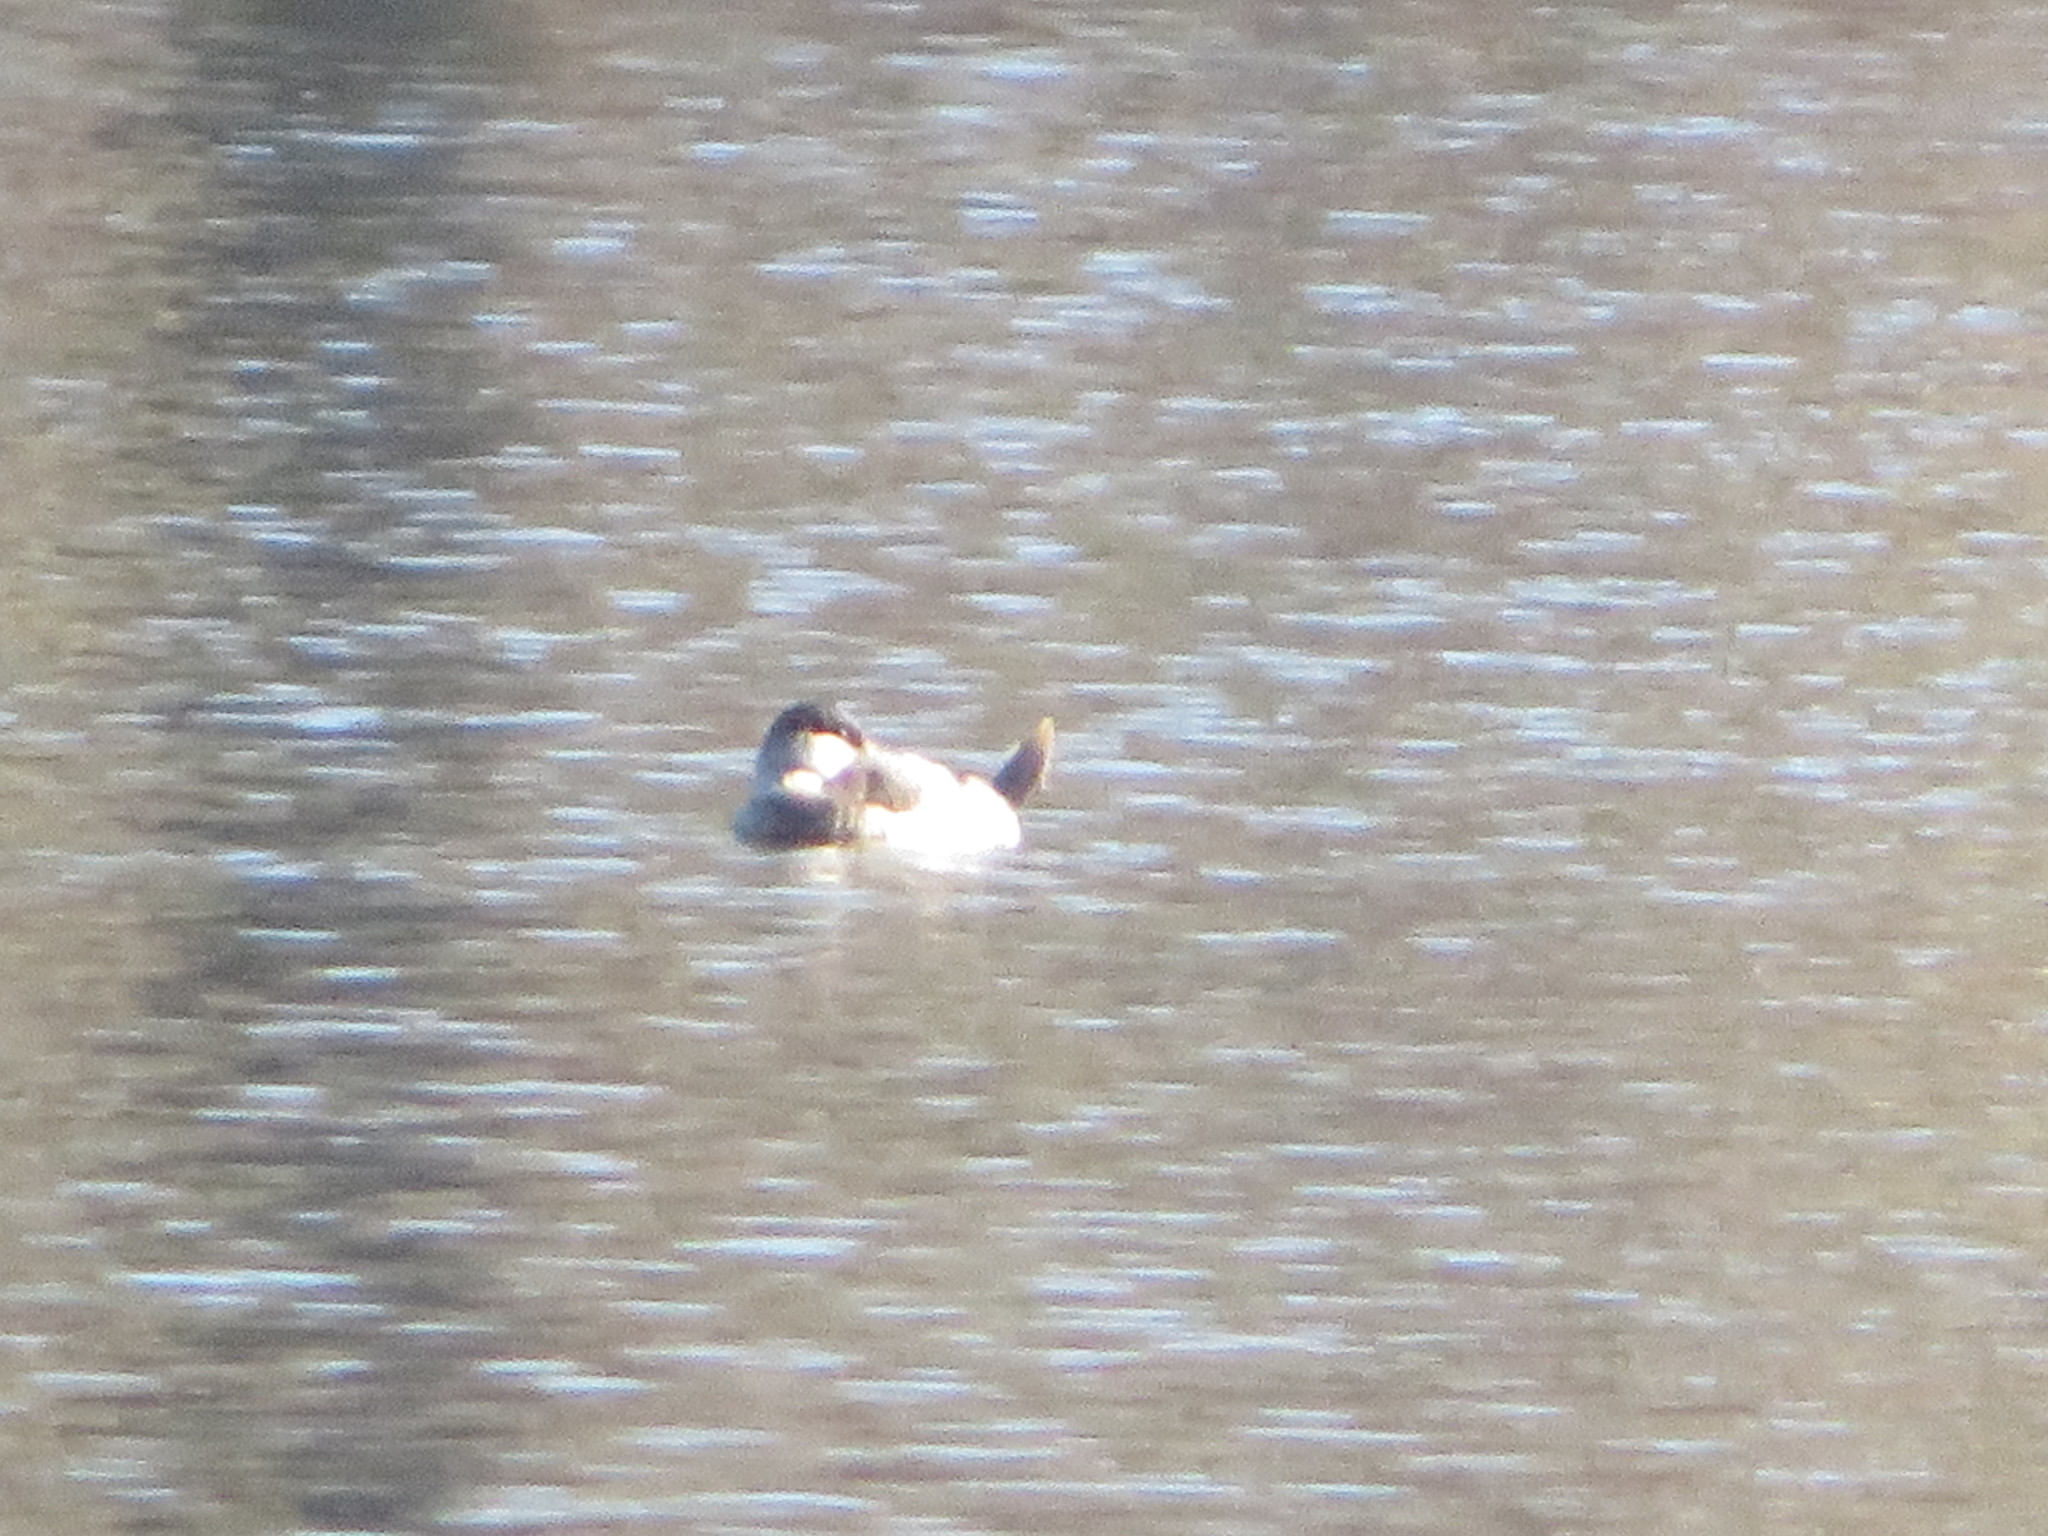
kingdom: Animalia
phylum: Chordata
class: Aves
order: Anseriformes
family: Anatidae
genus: Oxyura
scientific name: Oxyura jamaicensis
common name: Ruddy duck
